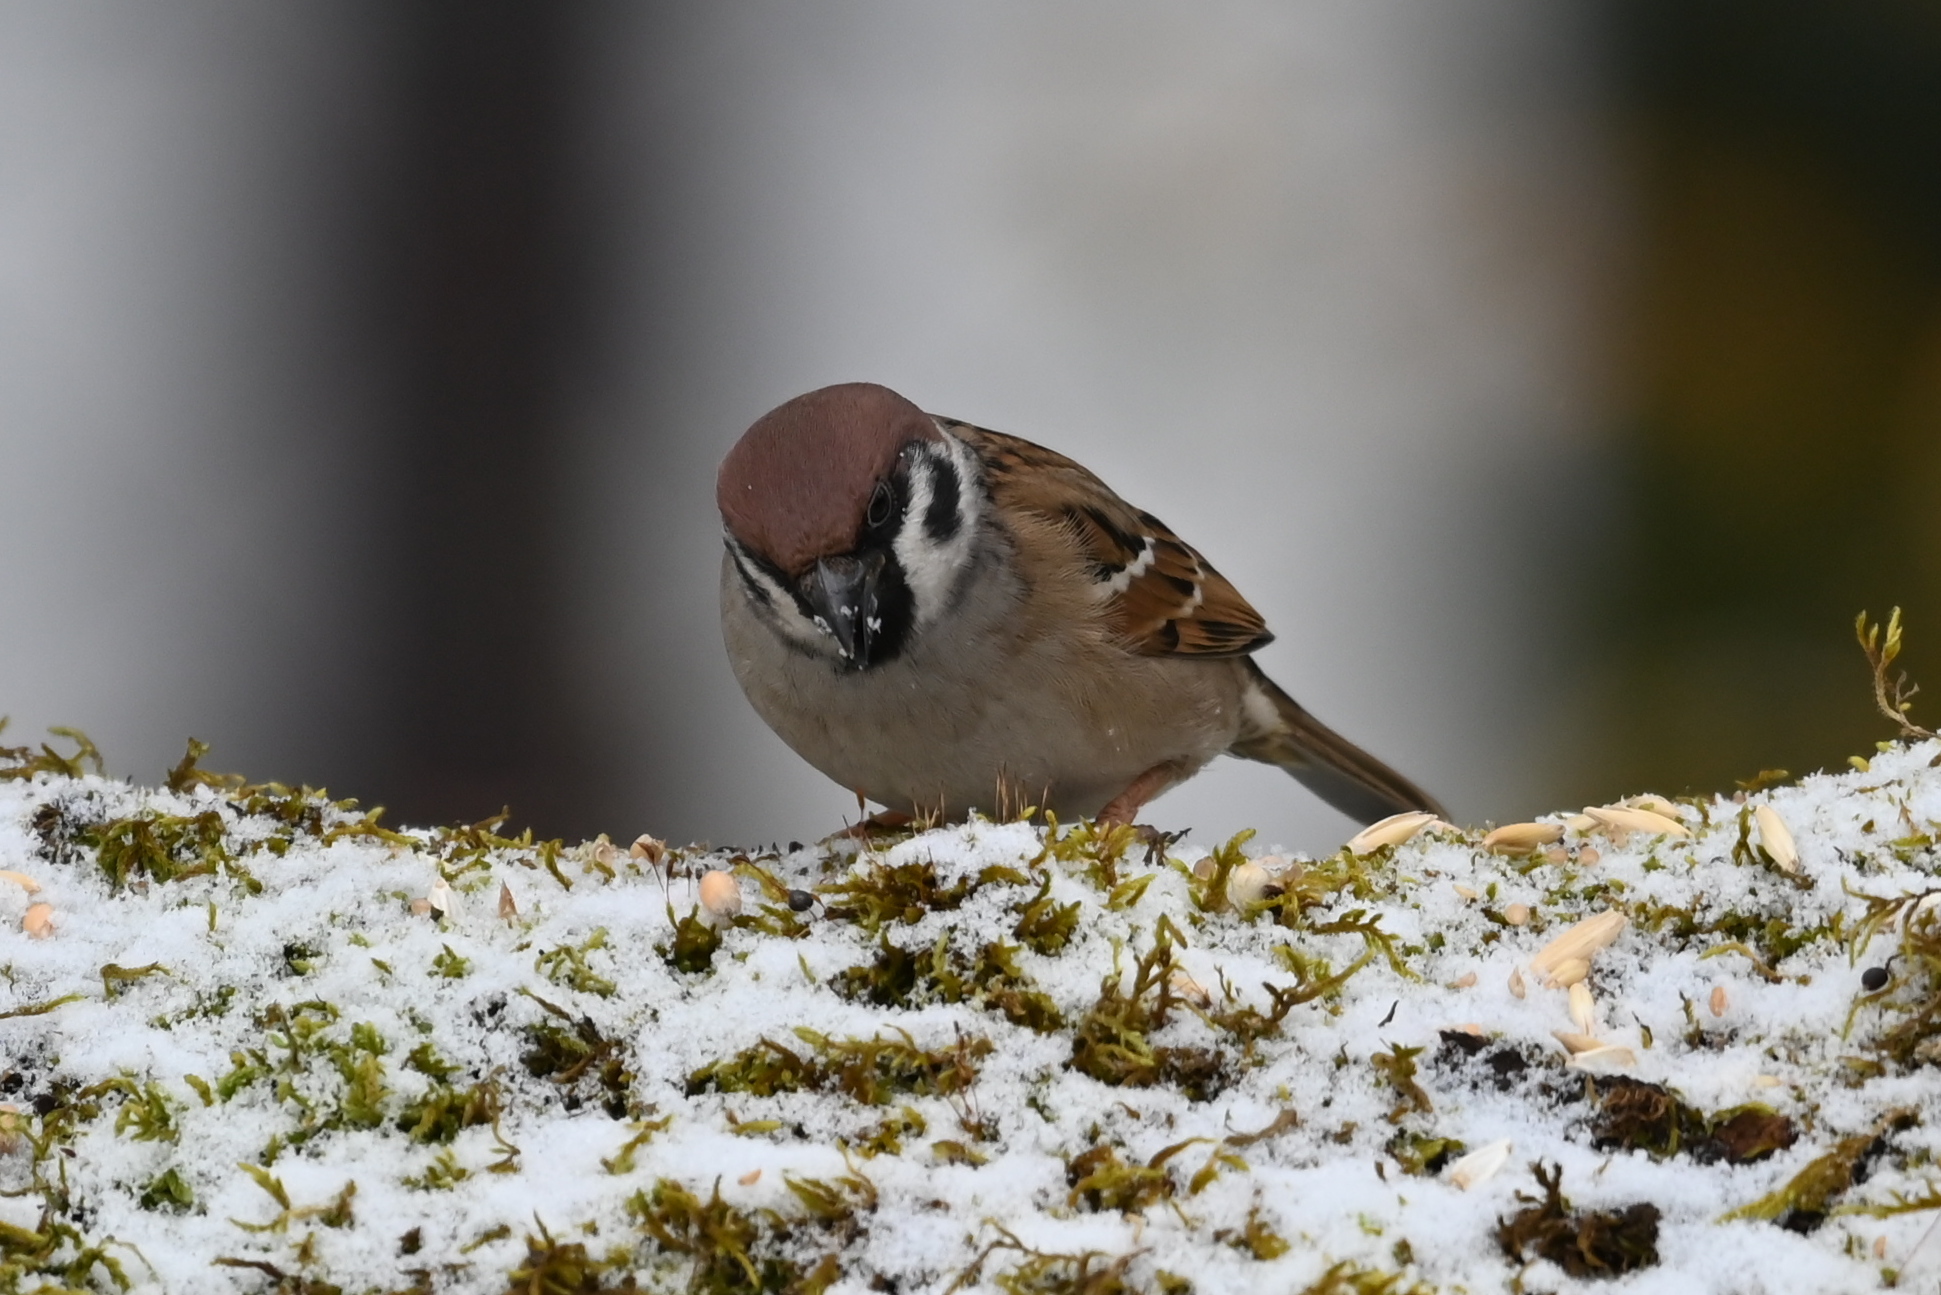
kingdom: Animalia
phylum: Chordata
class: Aves
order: Passeriformes
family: Passeridae
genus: Passer
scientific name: Passer montanus
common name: Eurasian tree sparrow
